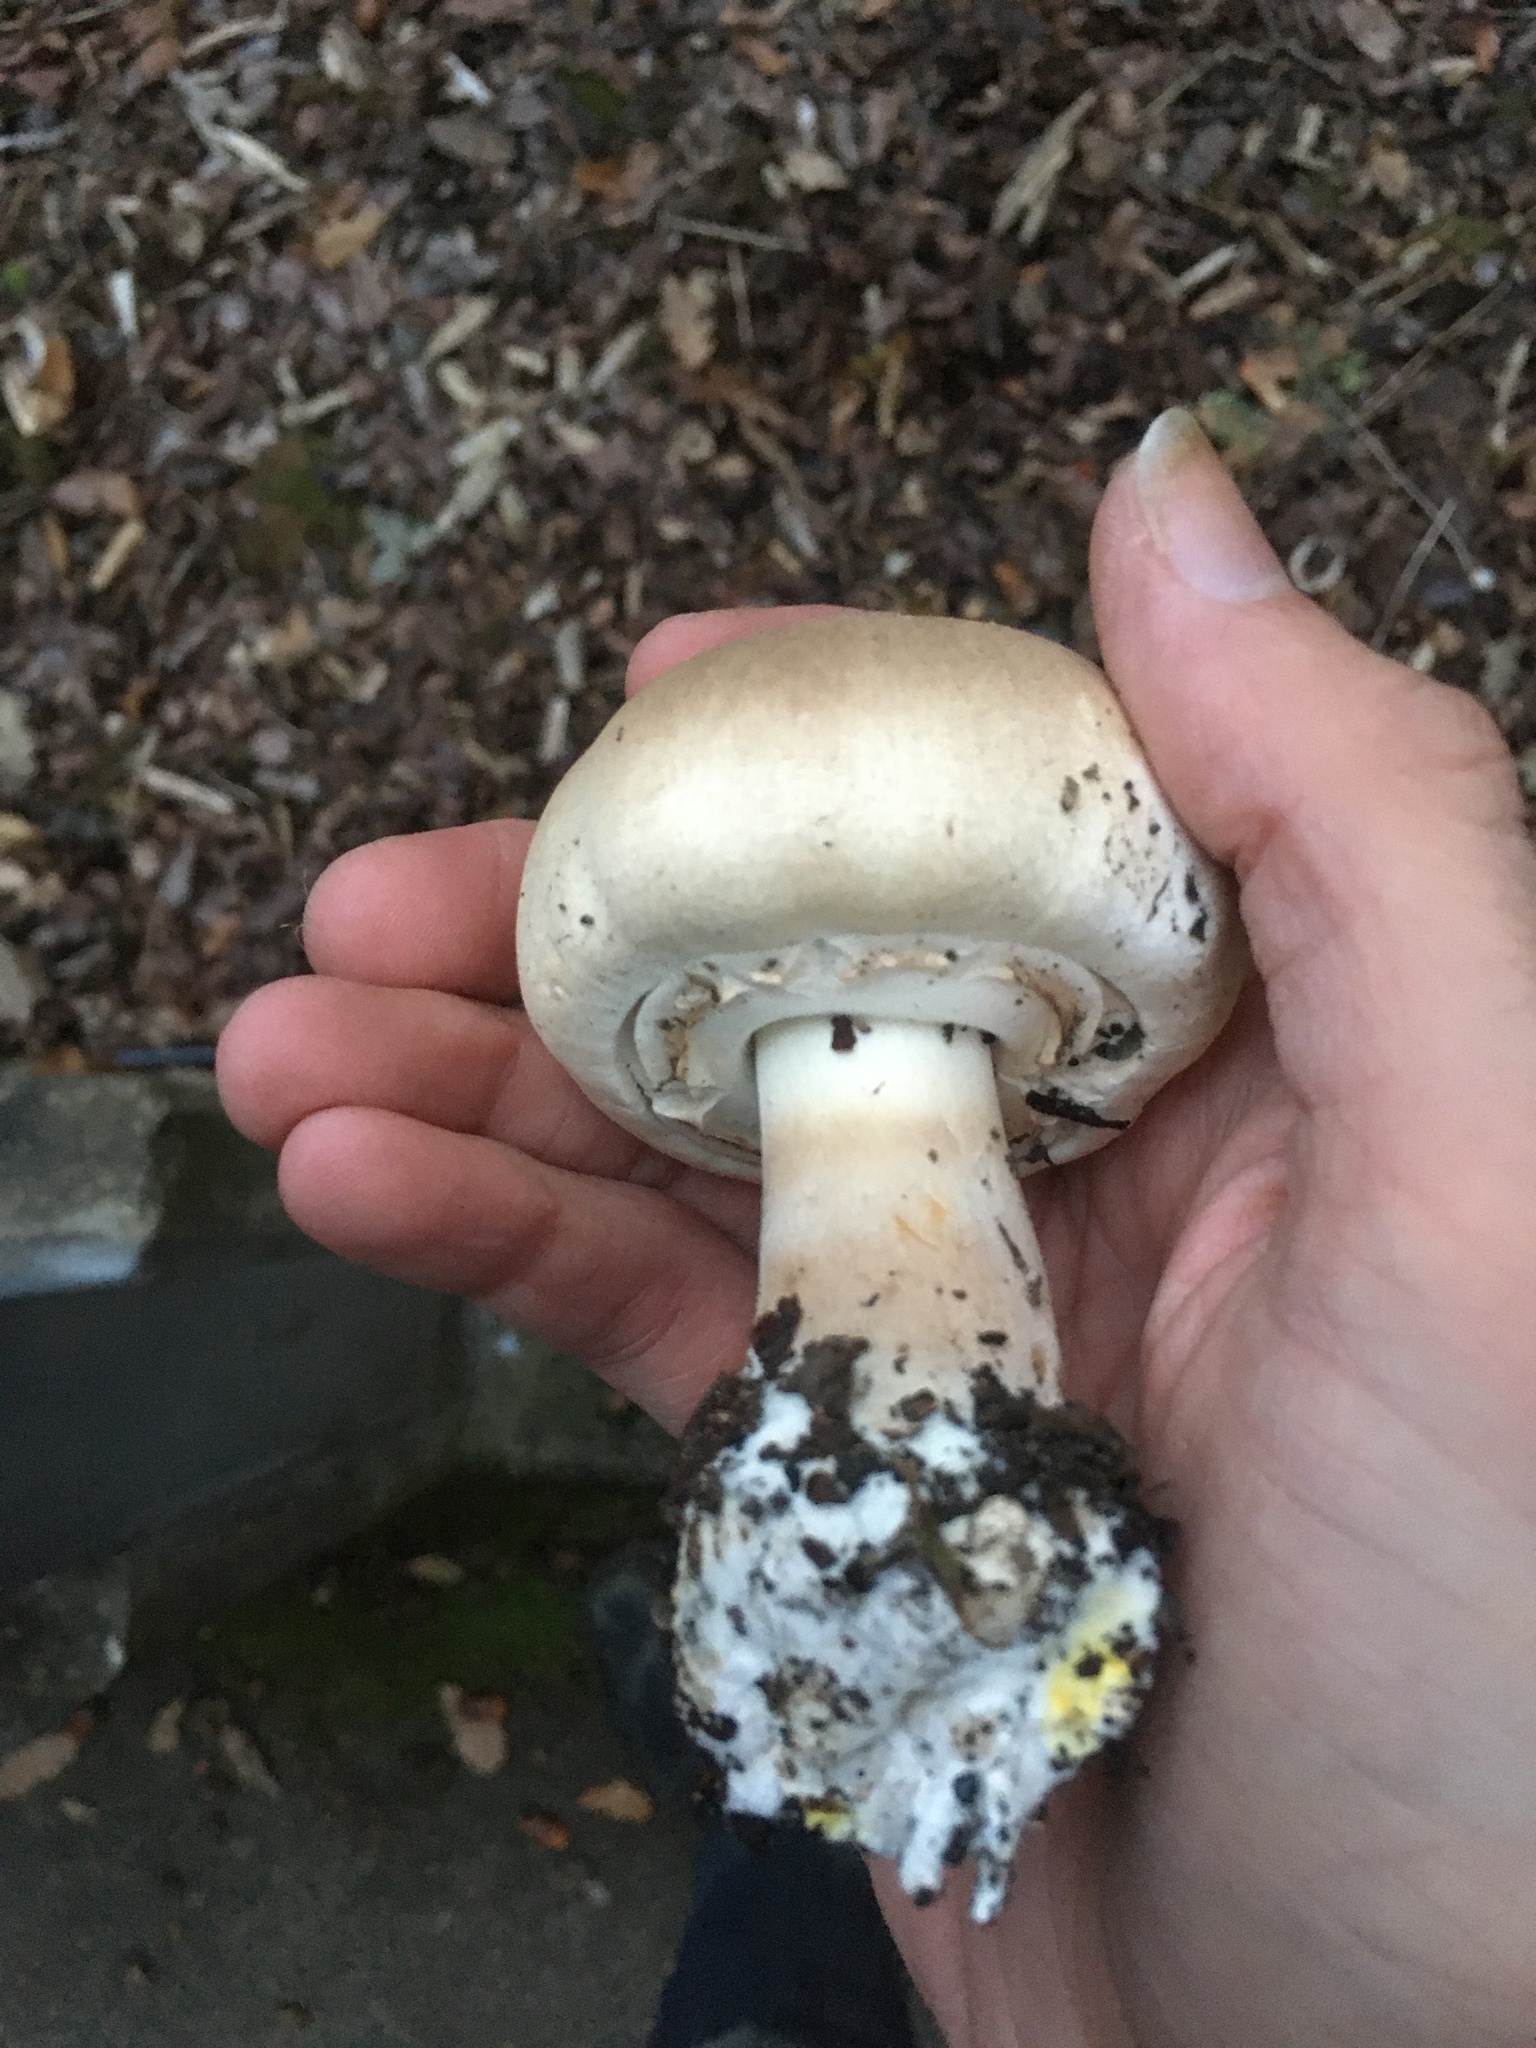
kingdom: Fungi
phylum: Basidiomycota
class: Agaricomycetes
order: Agaricales
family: Agaricaceae
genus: Agaricus
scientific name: Agaricus xanthodermus
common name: Yellow stainer
